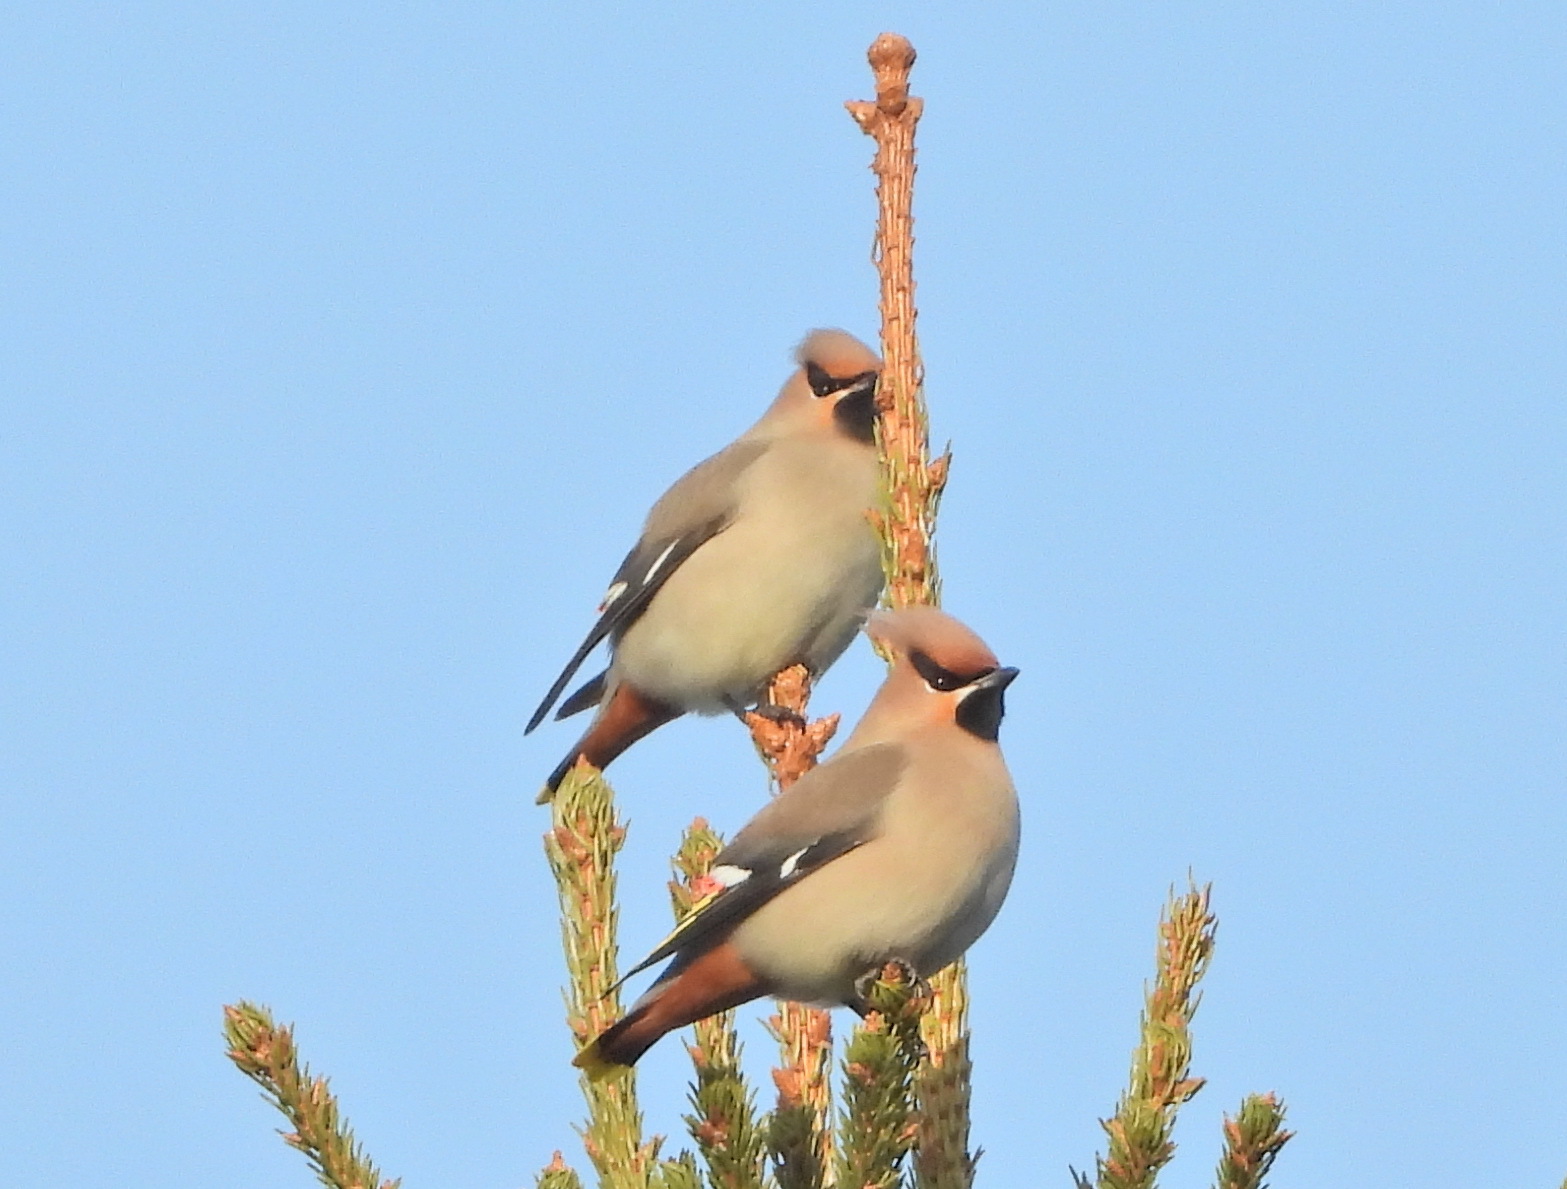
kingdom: Animalia
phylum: Chordata
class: Aves
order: Passeriformes
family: Bombycillidae
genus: Bombycilla
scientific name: Bombycilla garrulus
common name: Bohemian waxwing
